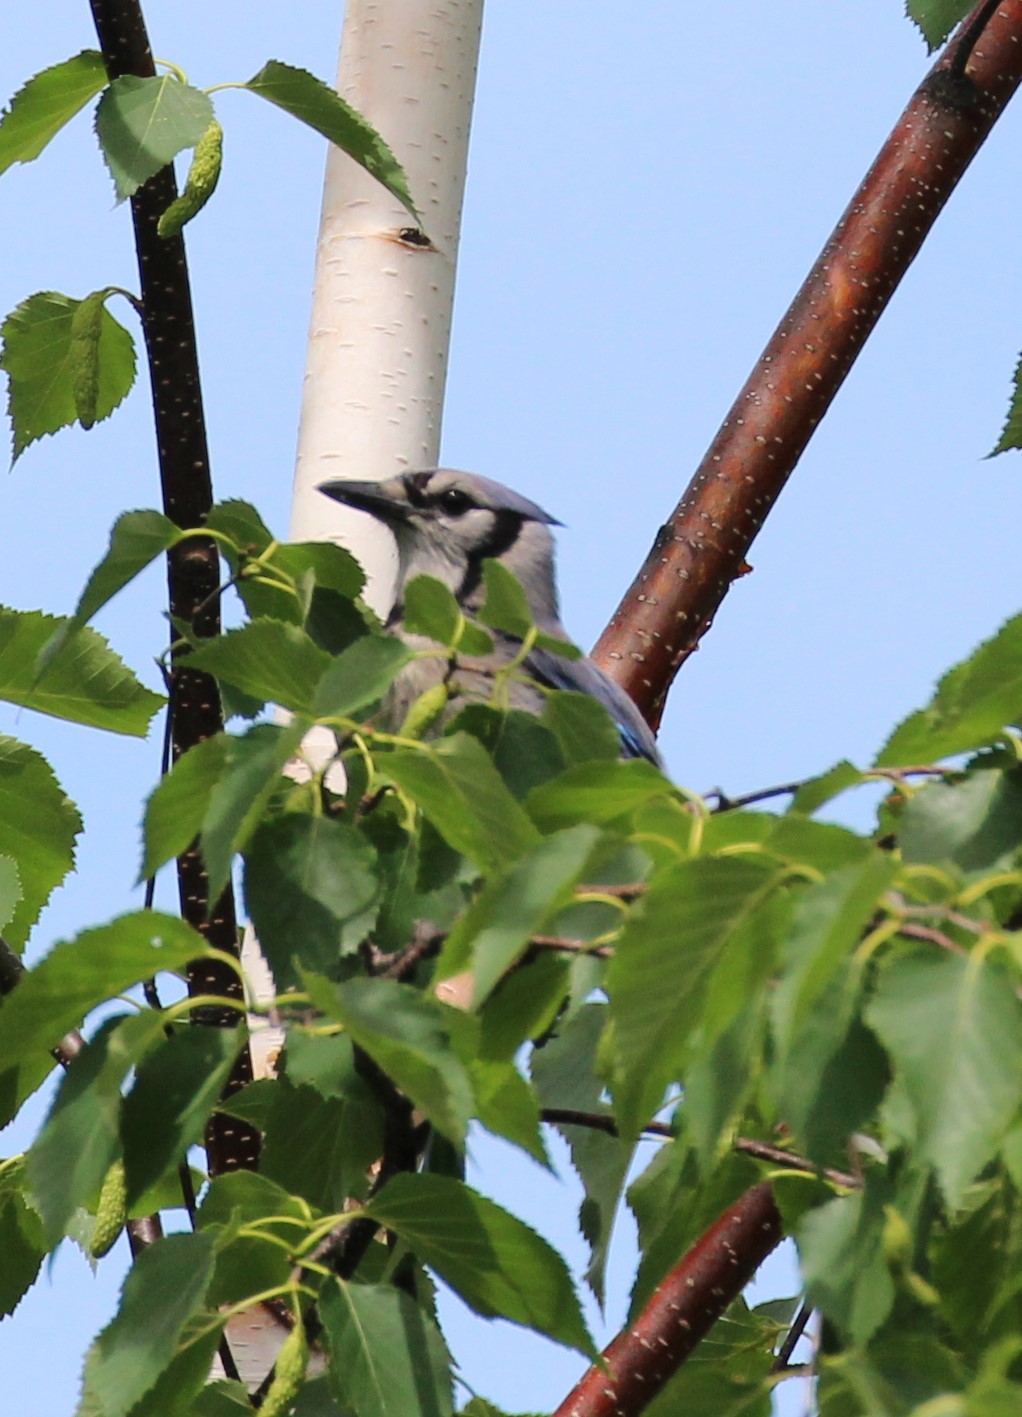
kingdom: Animalia
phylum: Chordata
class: Aves
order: Passeriformes
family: Corvidae
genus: Cyanocitta
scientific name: Cyanocitta cristata
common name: Blue jay
